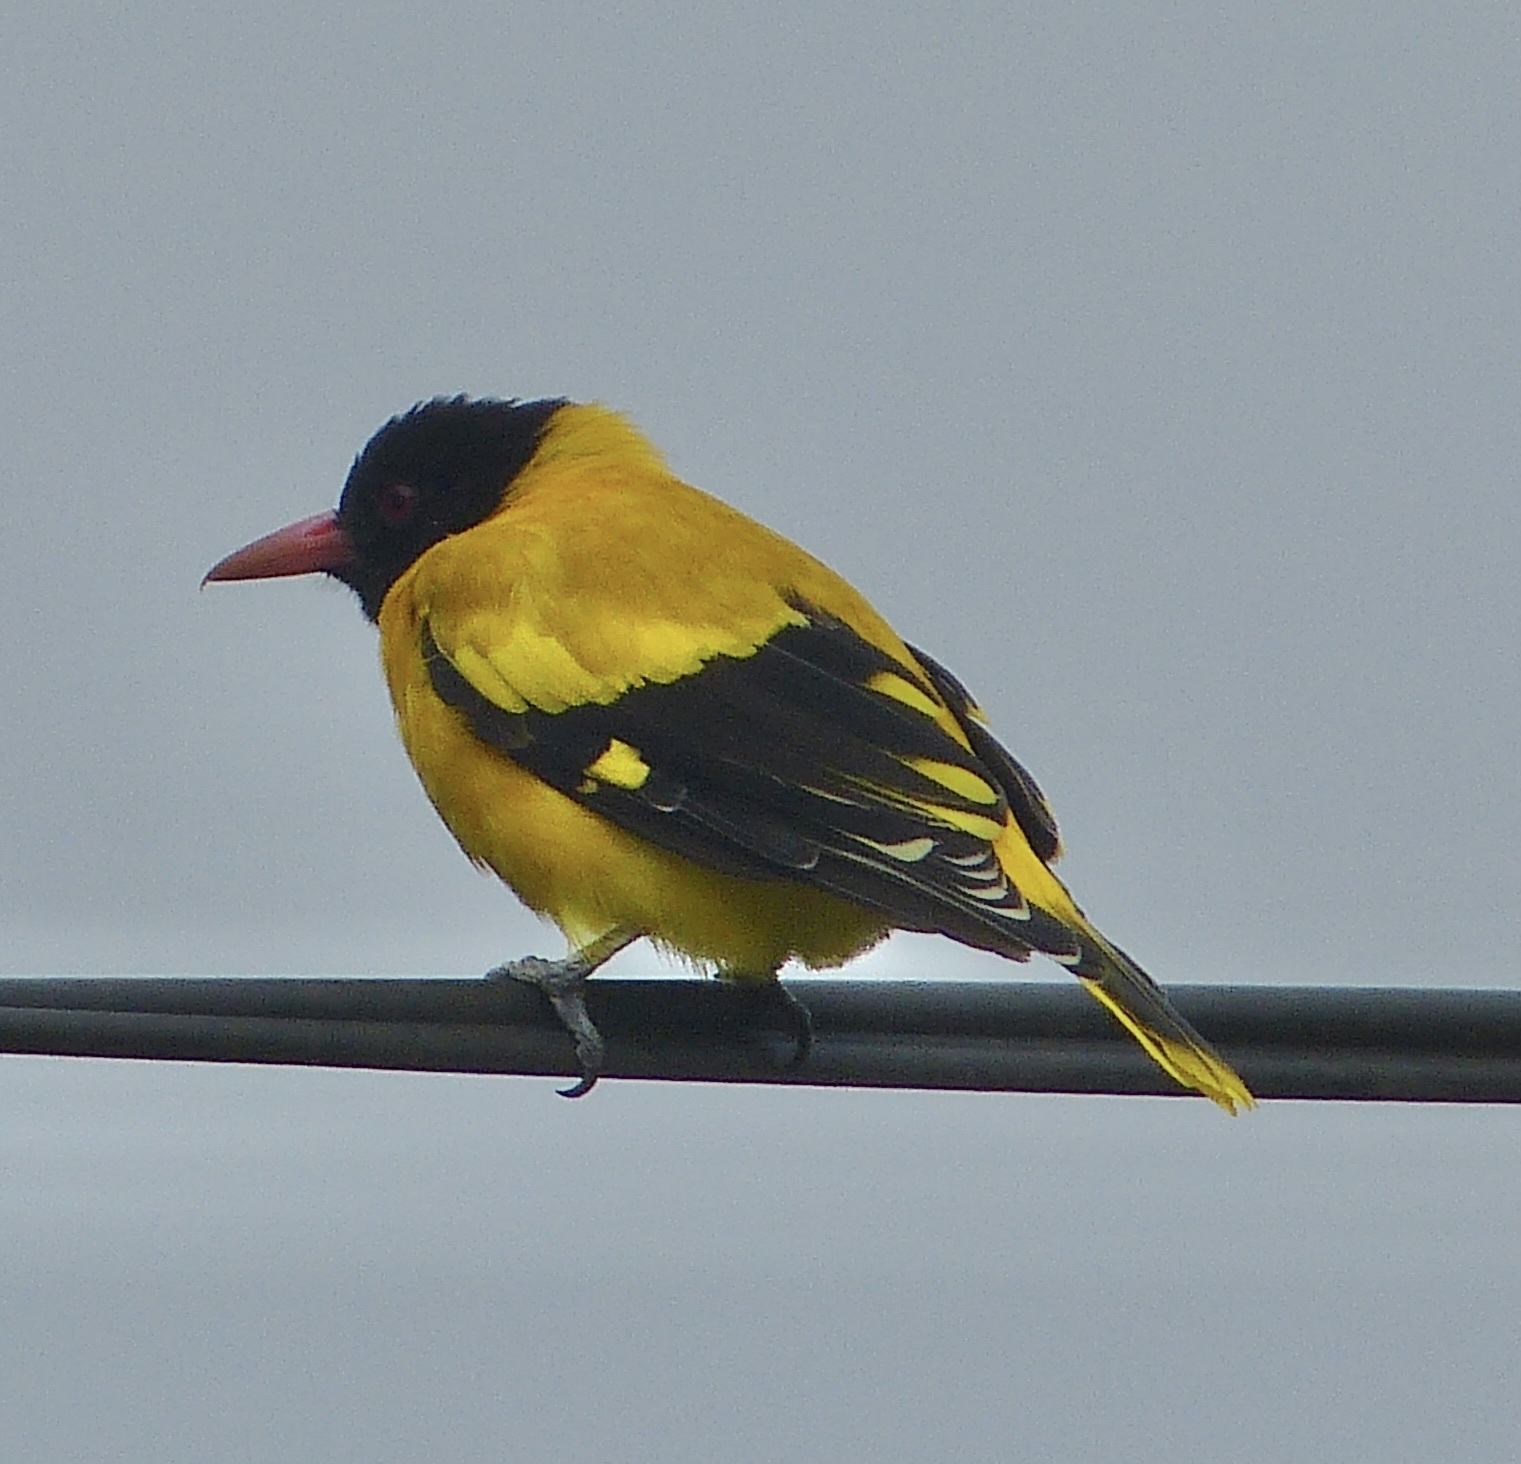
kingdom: Animalia
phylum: Chordata
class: Aves
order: Passeriformes
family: Oriolidae
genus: Oriolus
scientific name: Oriolus xanthornus
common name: Black-hooded oriole
